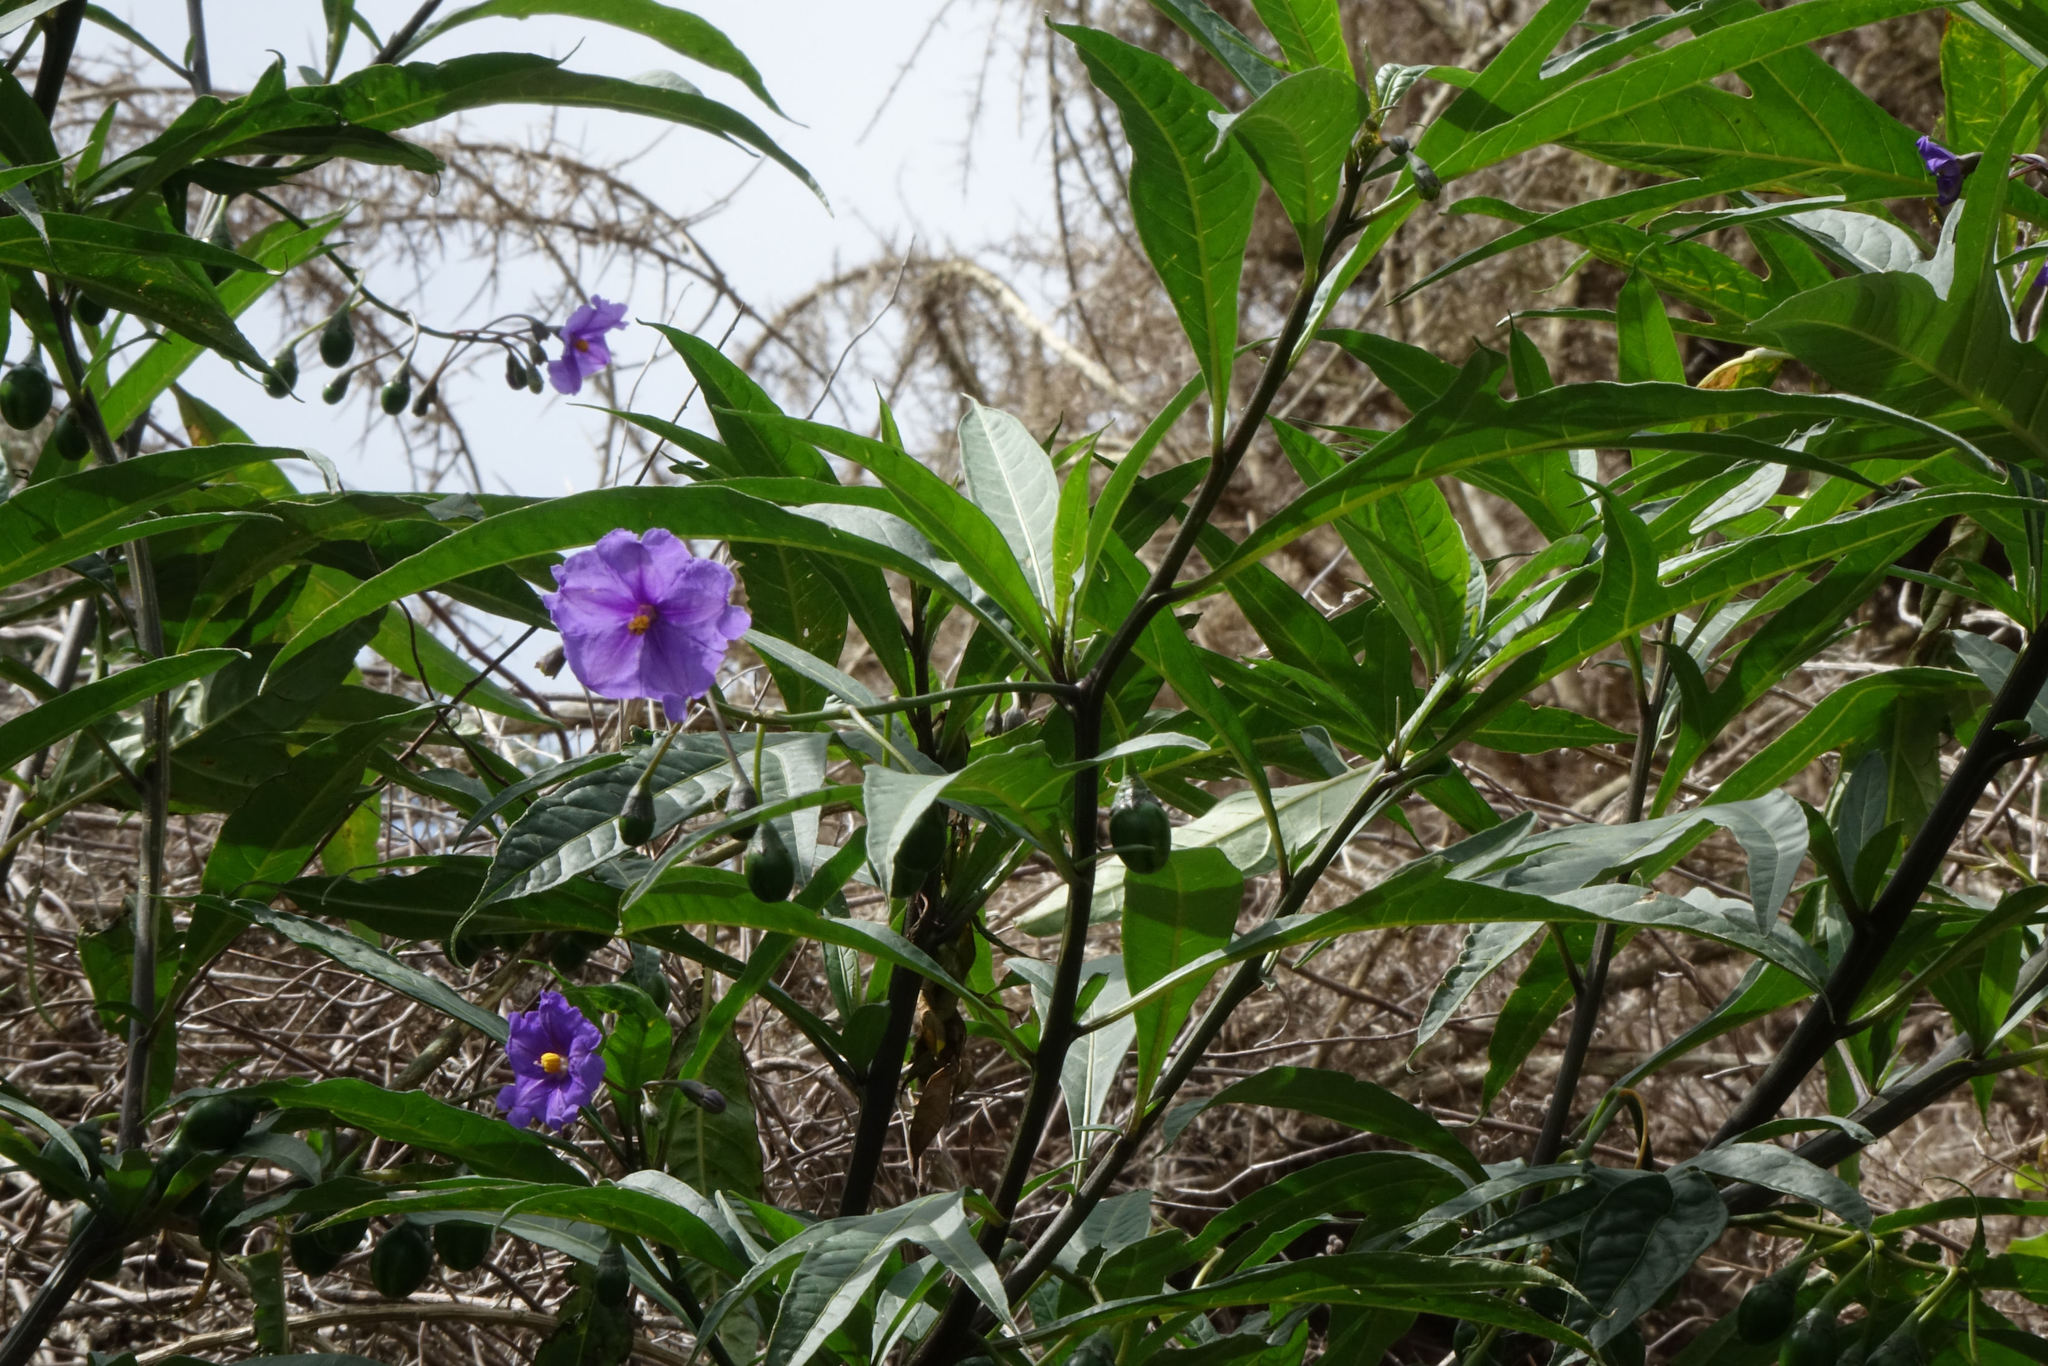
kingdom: Plantae
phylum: Tracheophyta
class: Magnoliopsida
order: Solanales
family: Solanaceae
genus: Solanum
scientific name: Solanum laciniatum
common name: Kangaroo-apple
